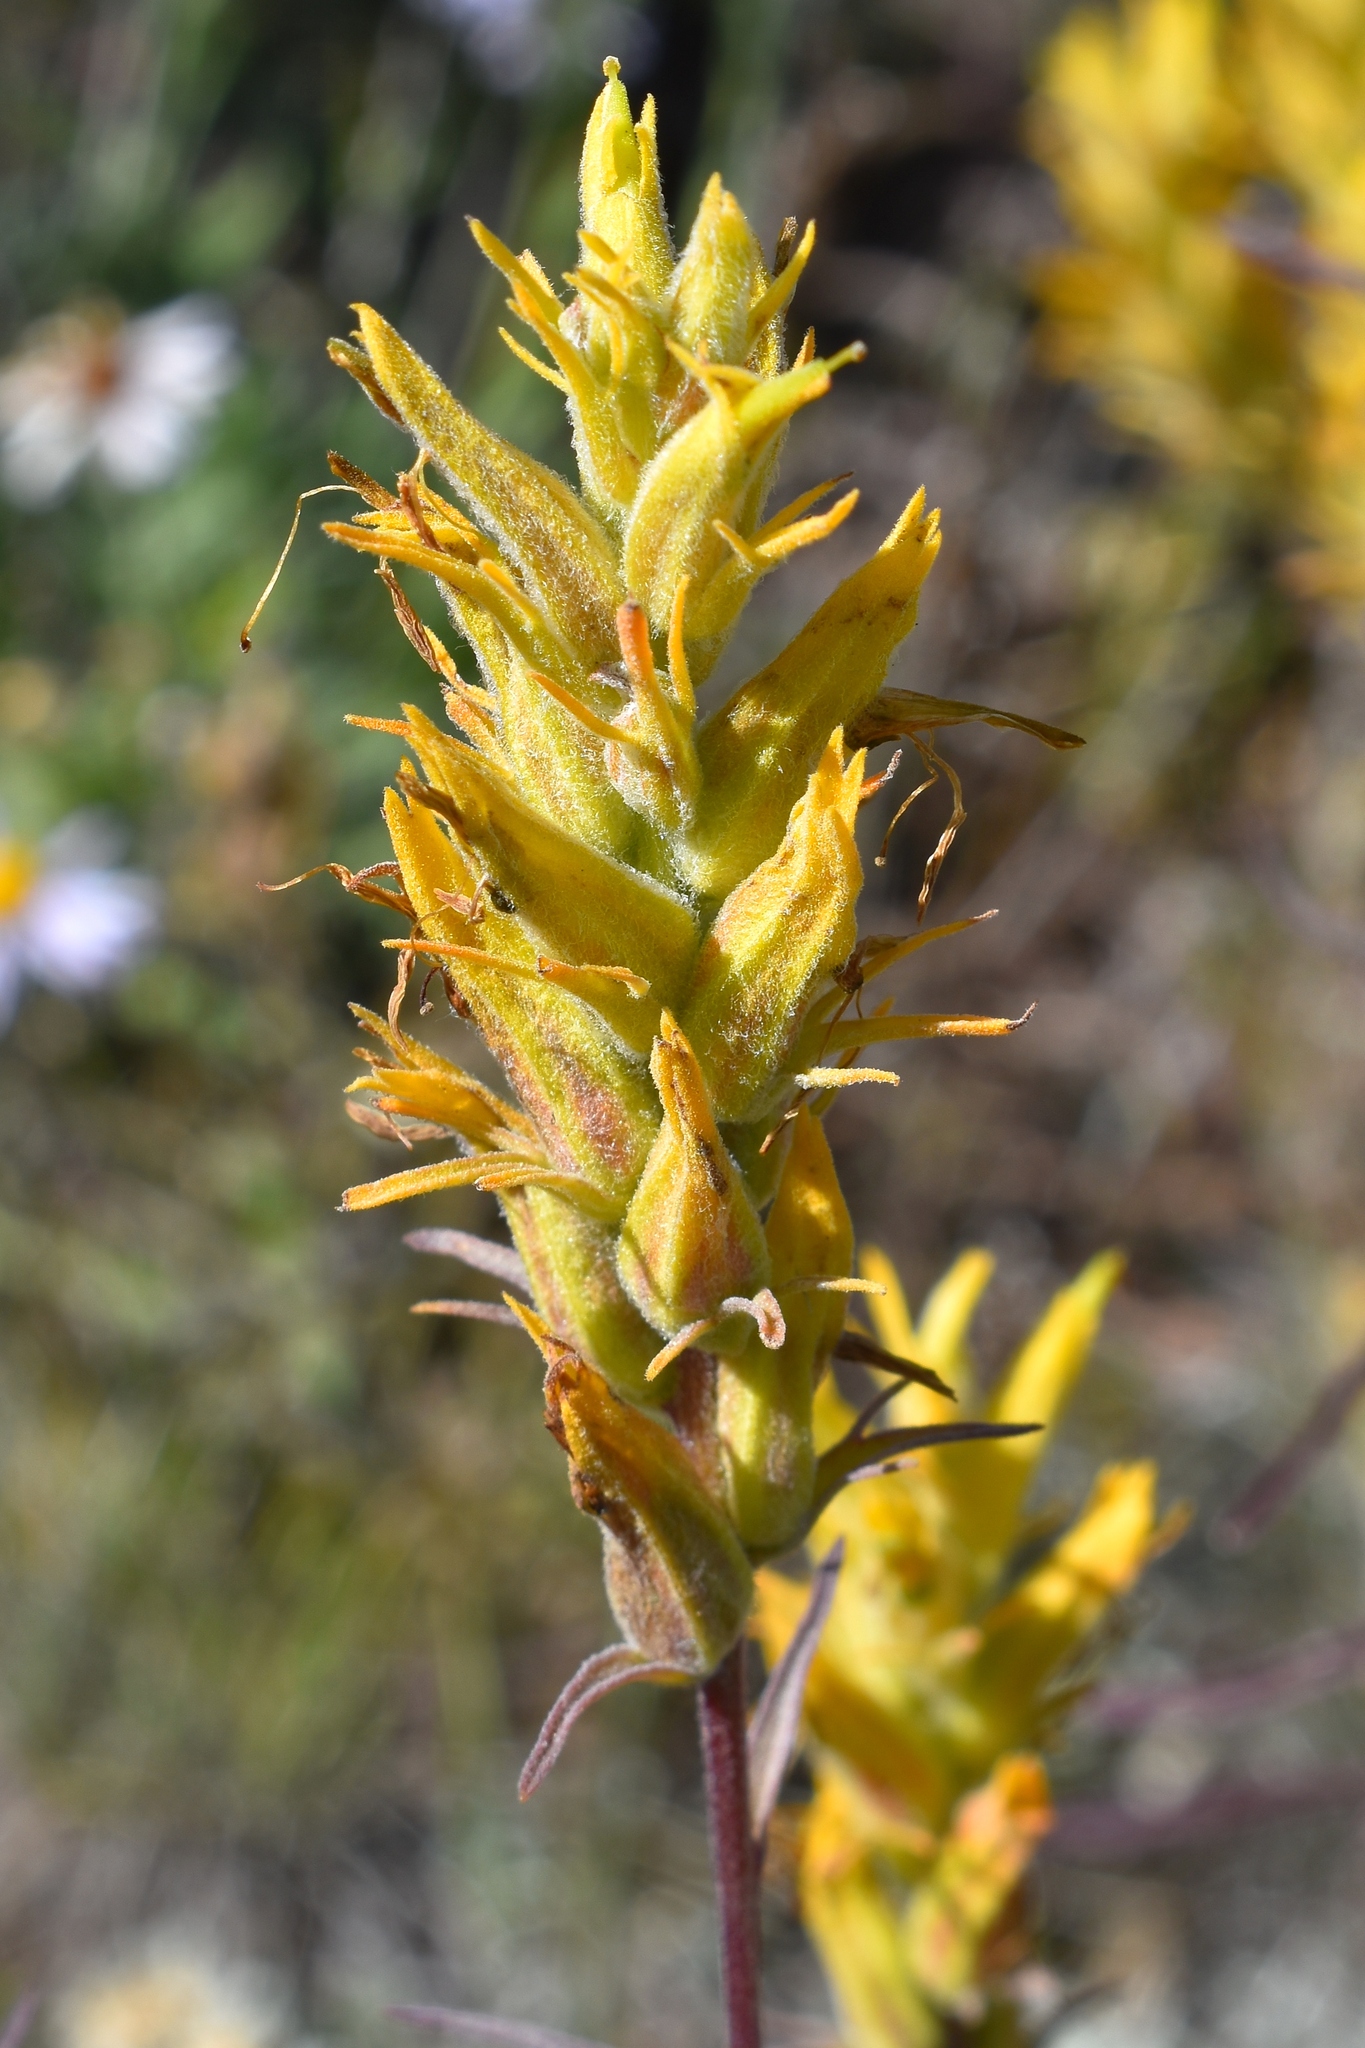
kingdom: Plantae
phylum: Tracheophyta
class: Magnoliopsida
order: Lamiales
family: Orobanchaceae
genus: Castilleja
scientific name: Castilleja flava
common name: Yellow paintbrush
